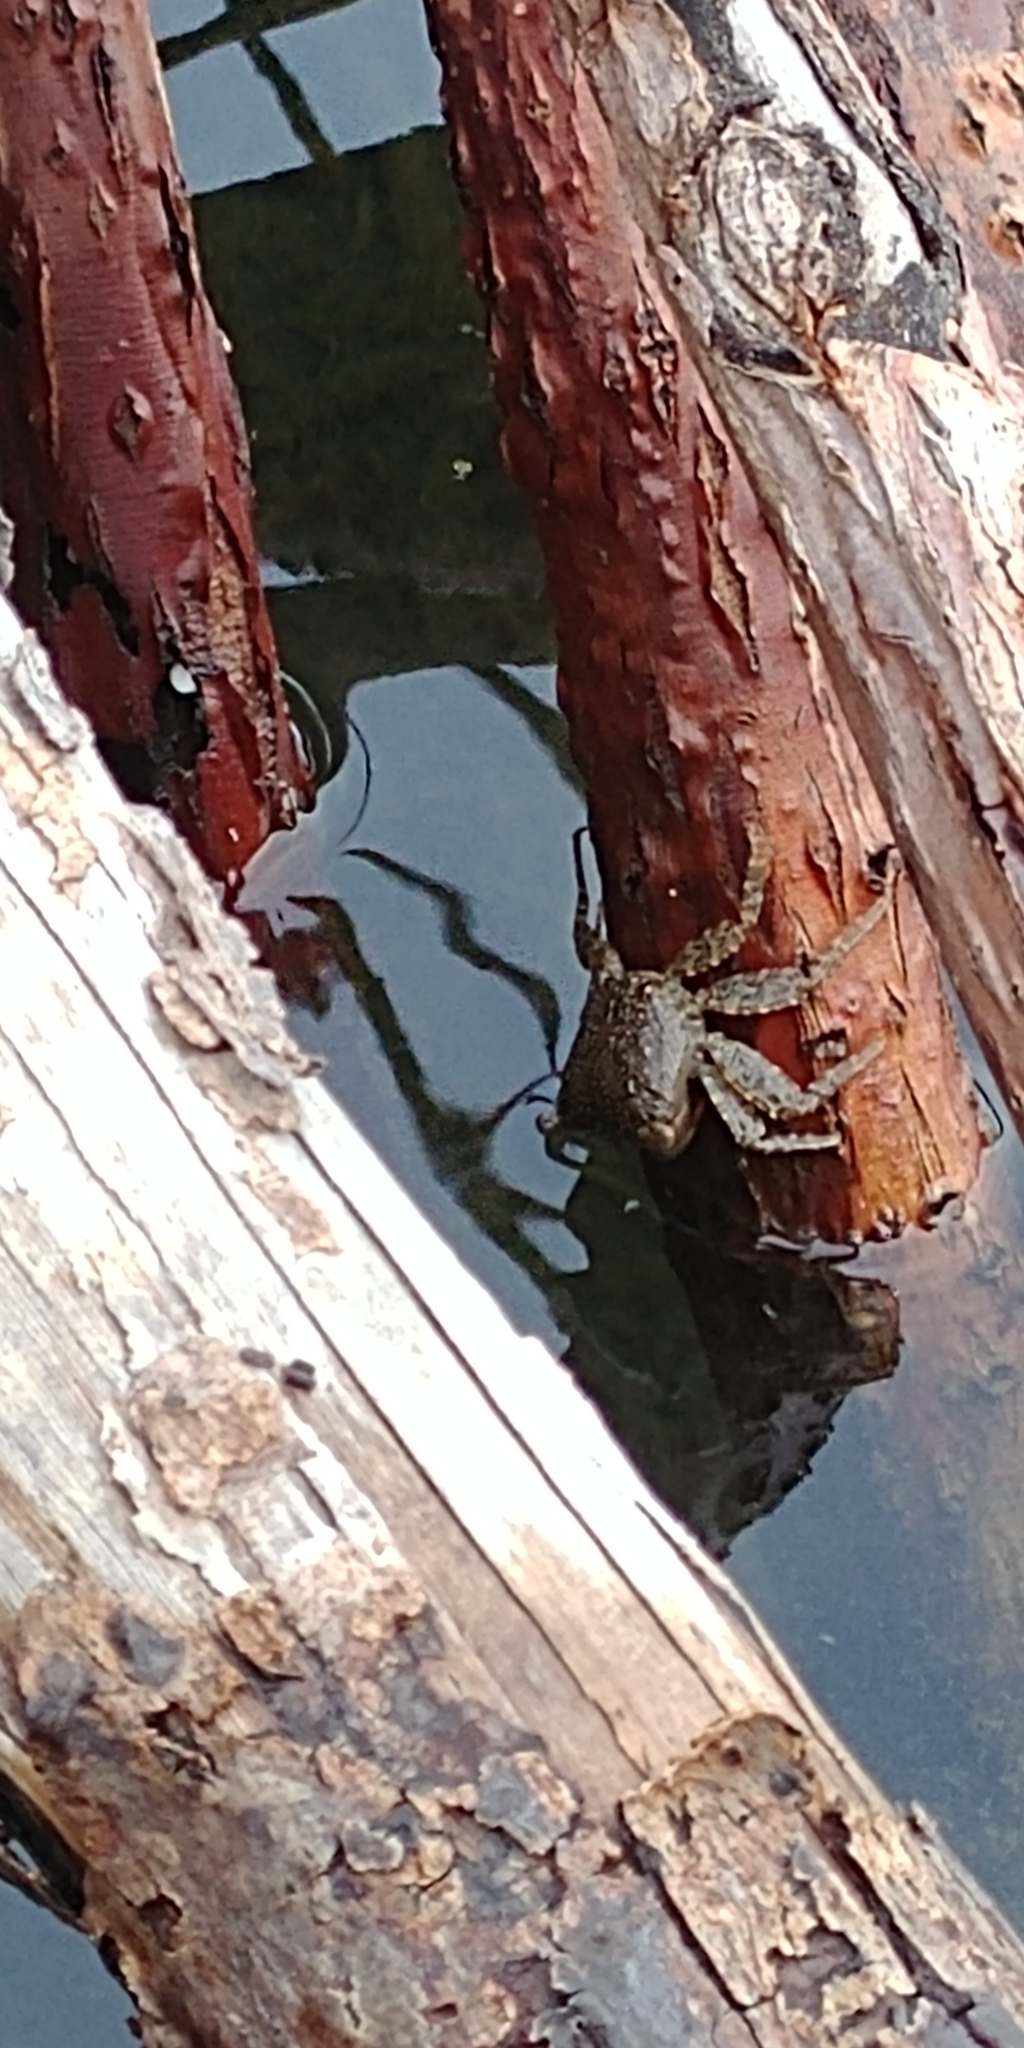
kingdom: Animalia
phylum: Arthropoda
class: Malacostraca
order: Decapoda
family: Sesarmidae
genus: Aratus
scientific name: Aratus pisonii
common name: Mangrove crab
